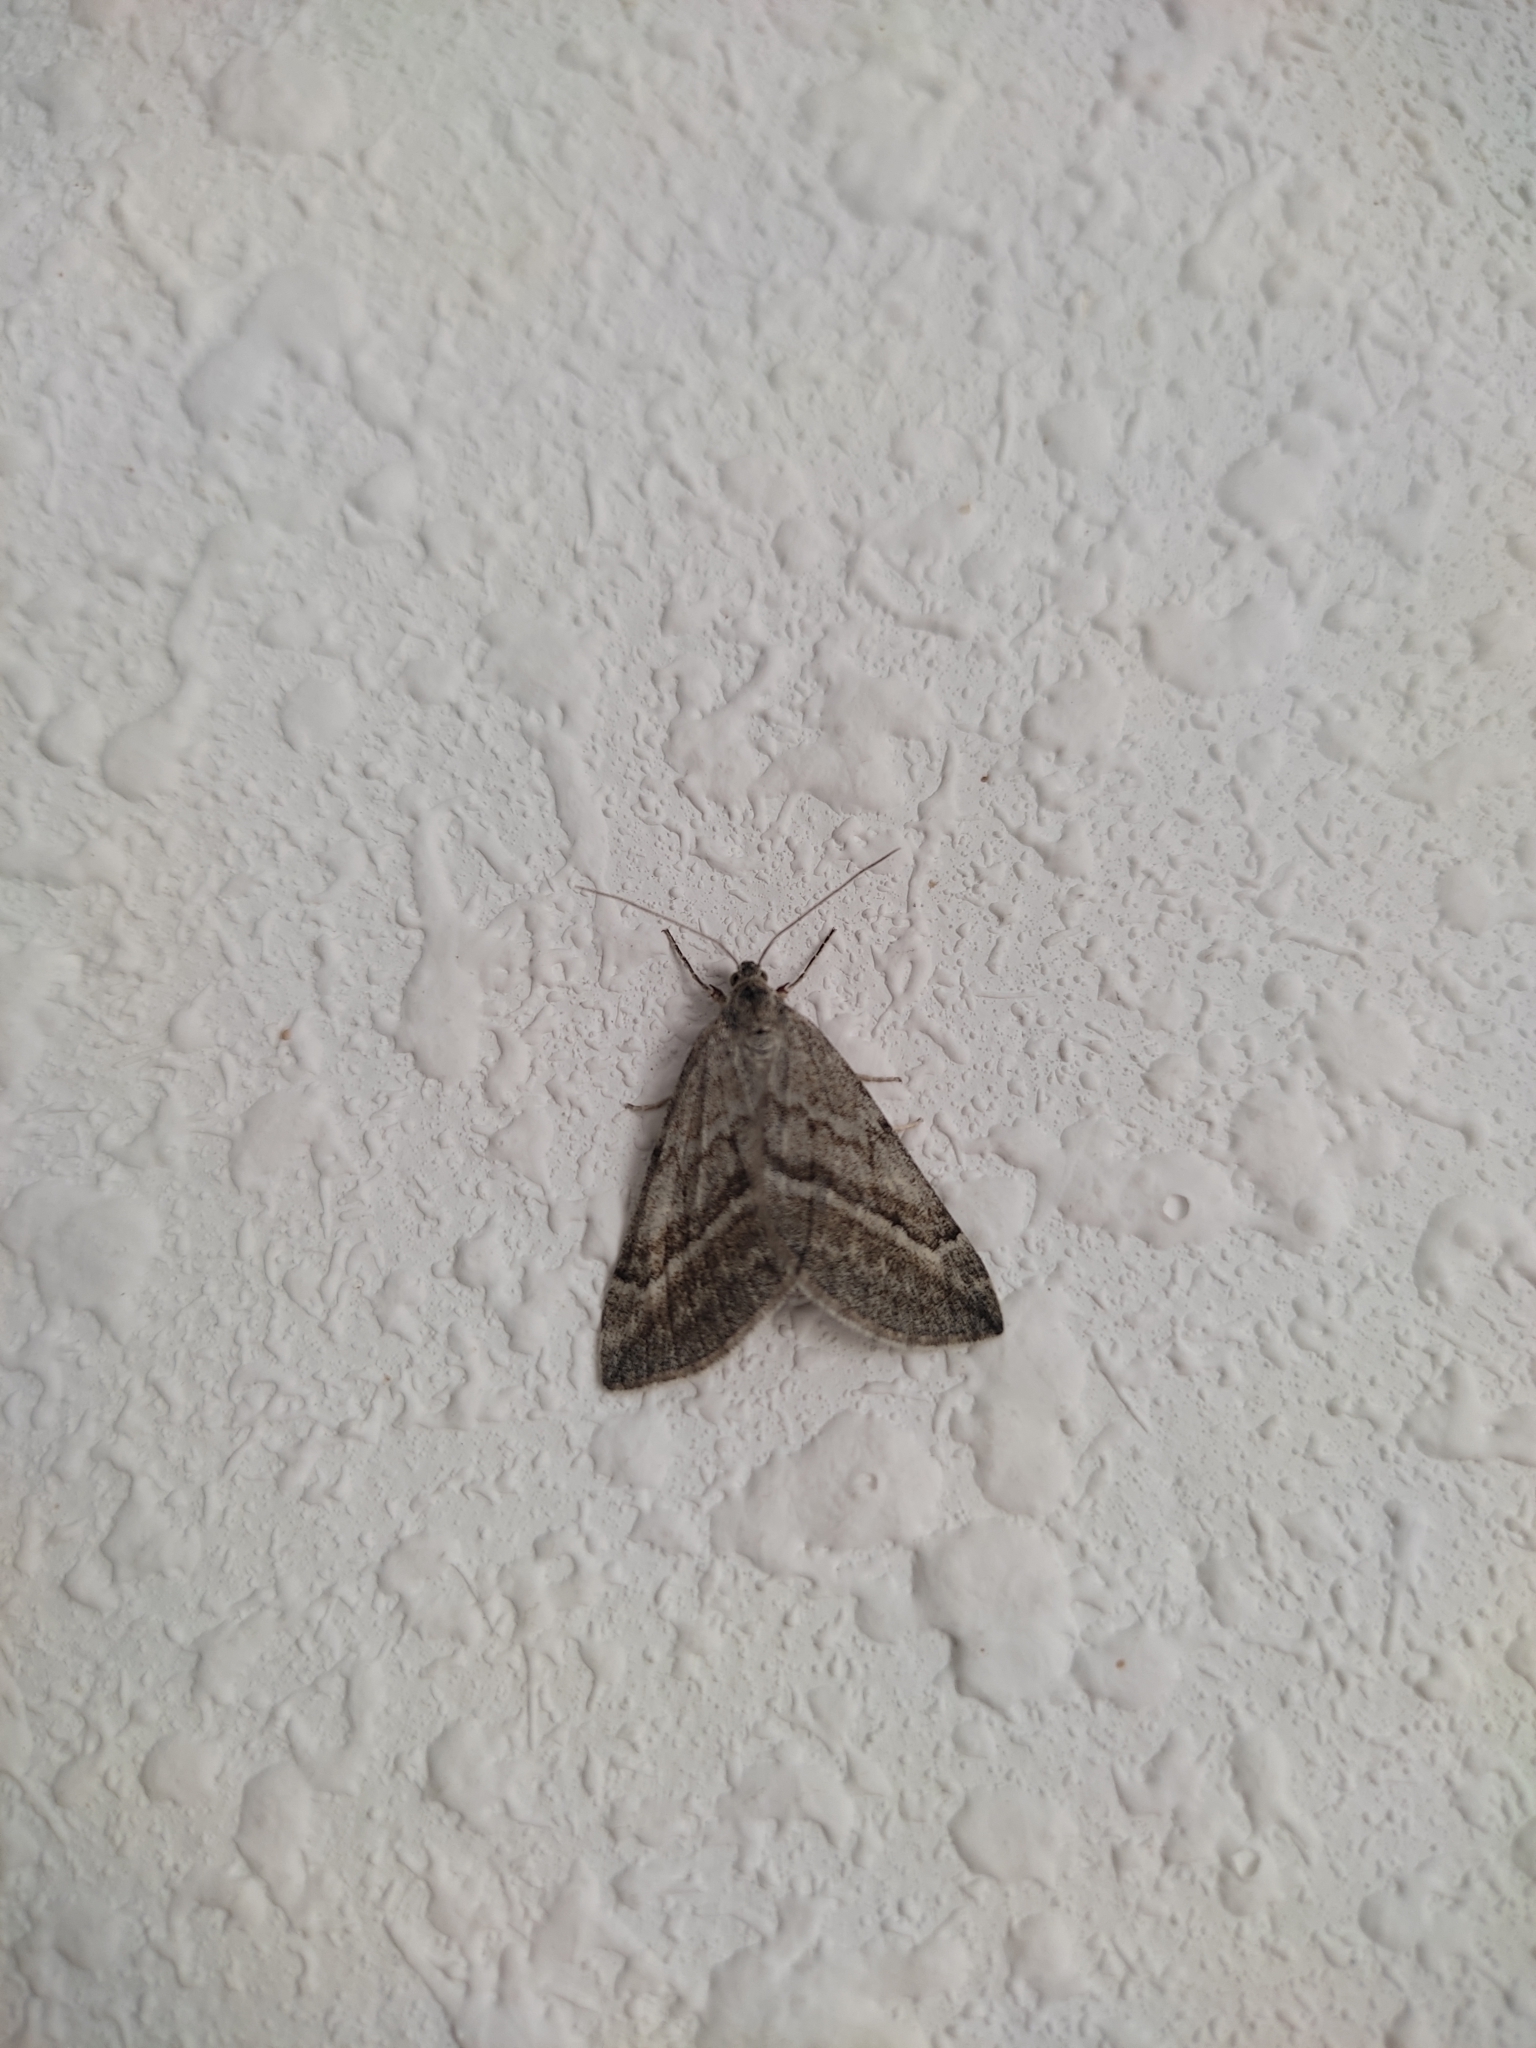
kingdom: Animalia
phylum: Arthropoda
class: Insecta
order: Lepidoptera
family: Geometridae
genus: Lithostege
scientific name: Lithostege coassata
